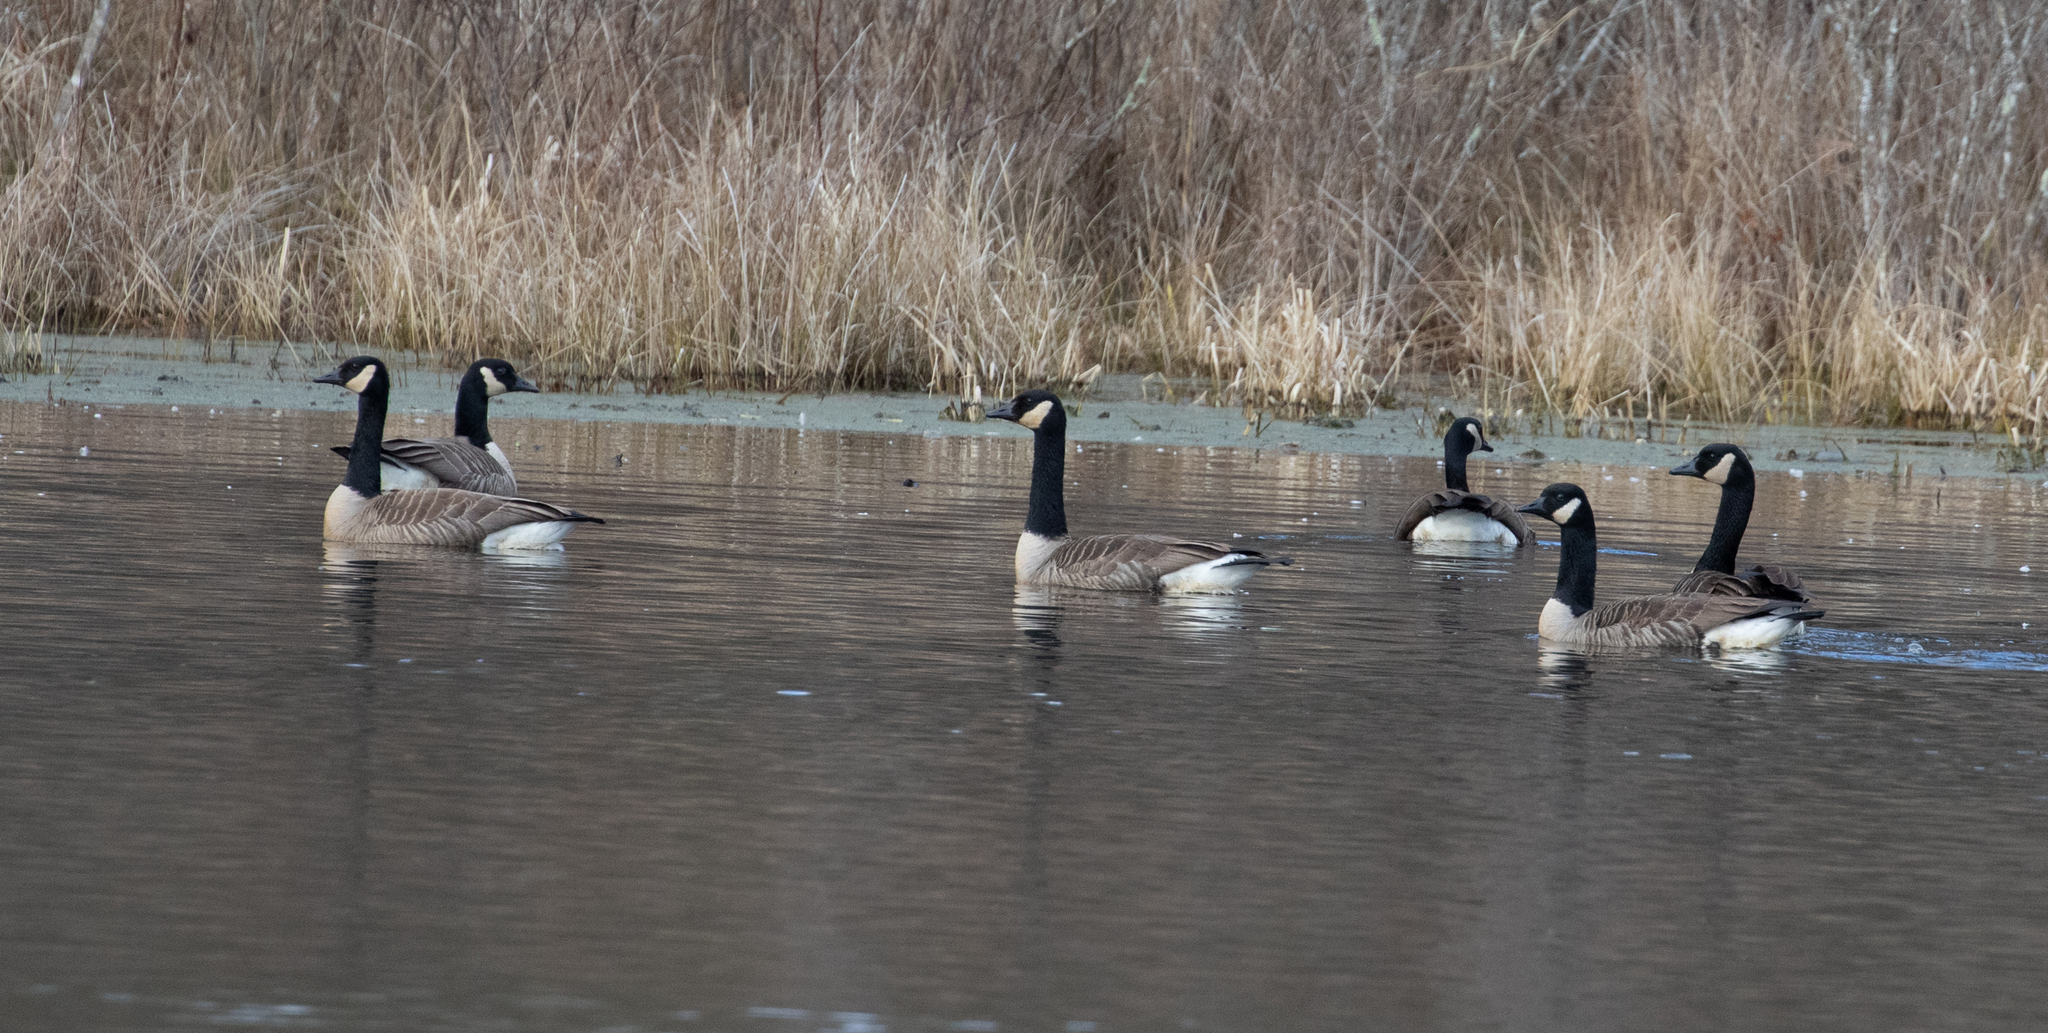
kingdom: Animalia
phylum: Chordata
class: Aves
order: Anseriformes
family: Anatidae
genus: Branta
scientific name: Branta canadensis
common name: Canada goose
